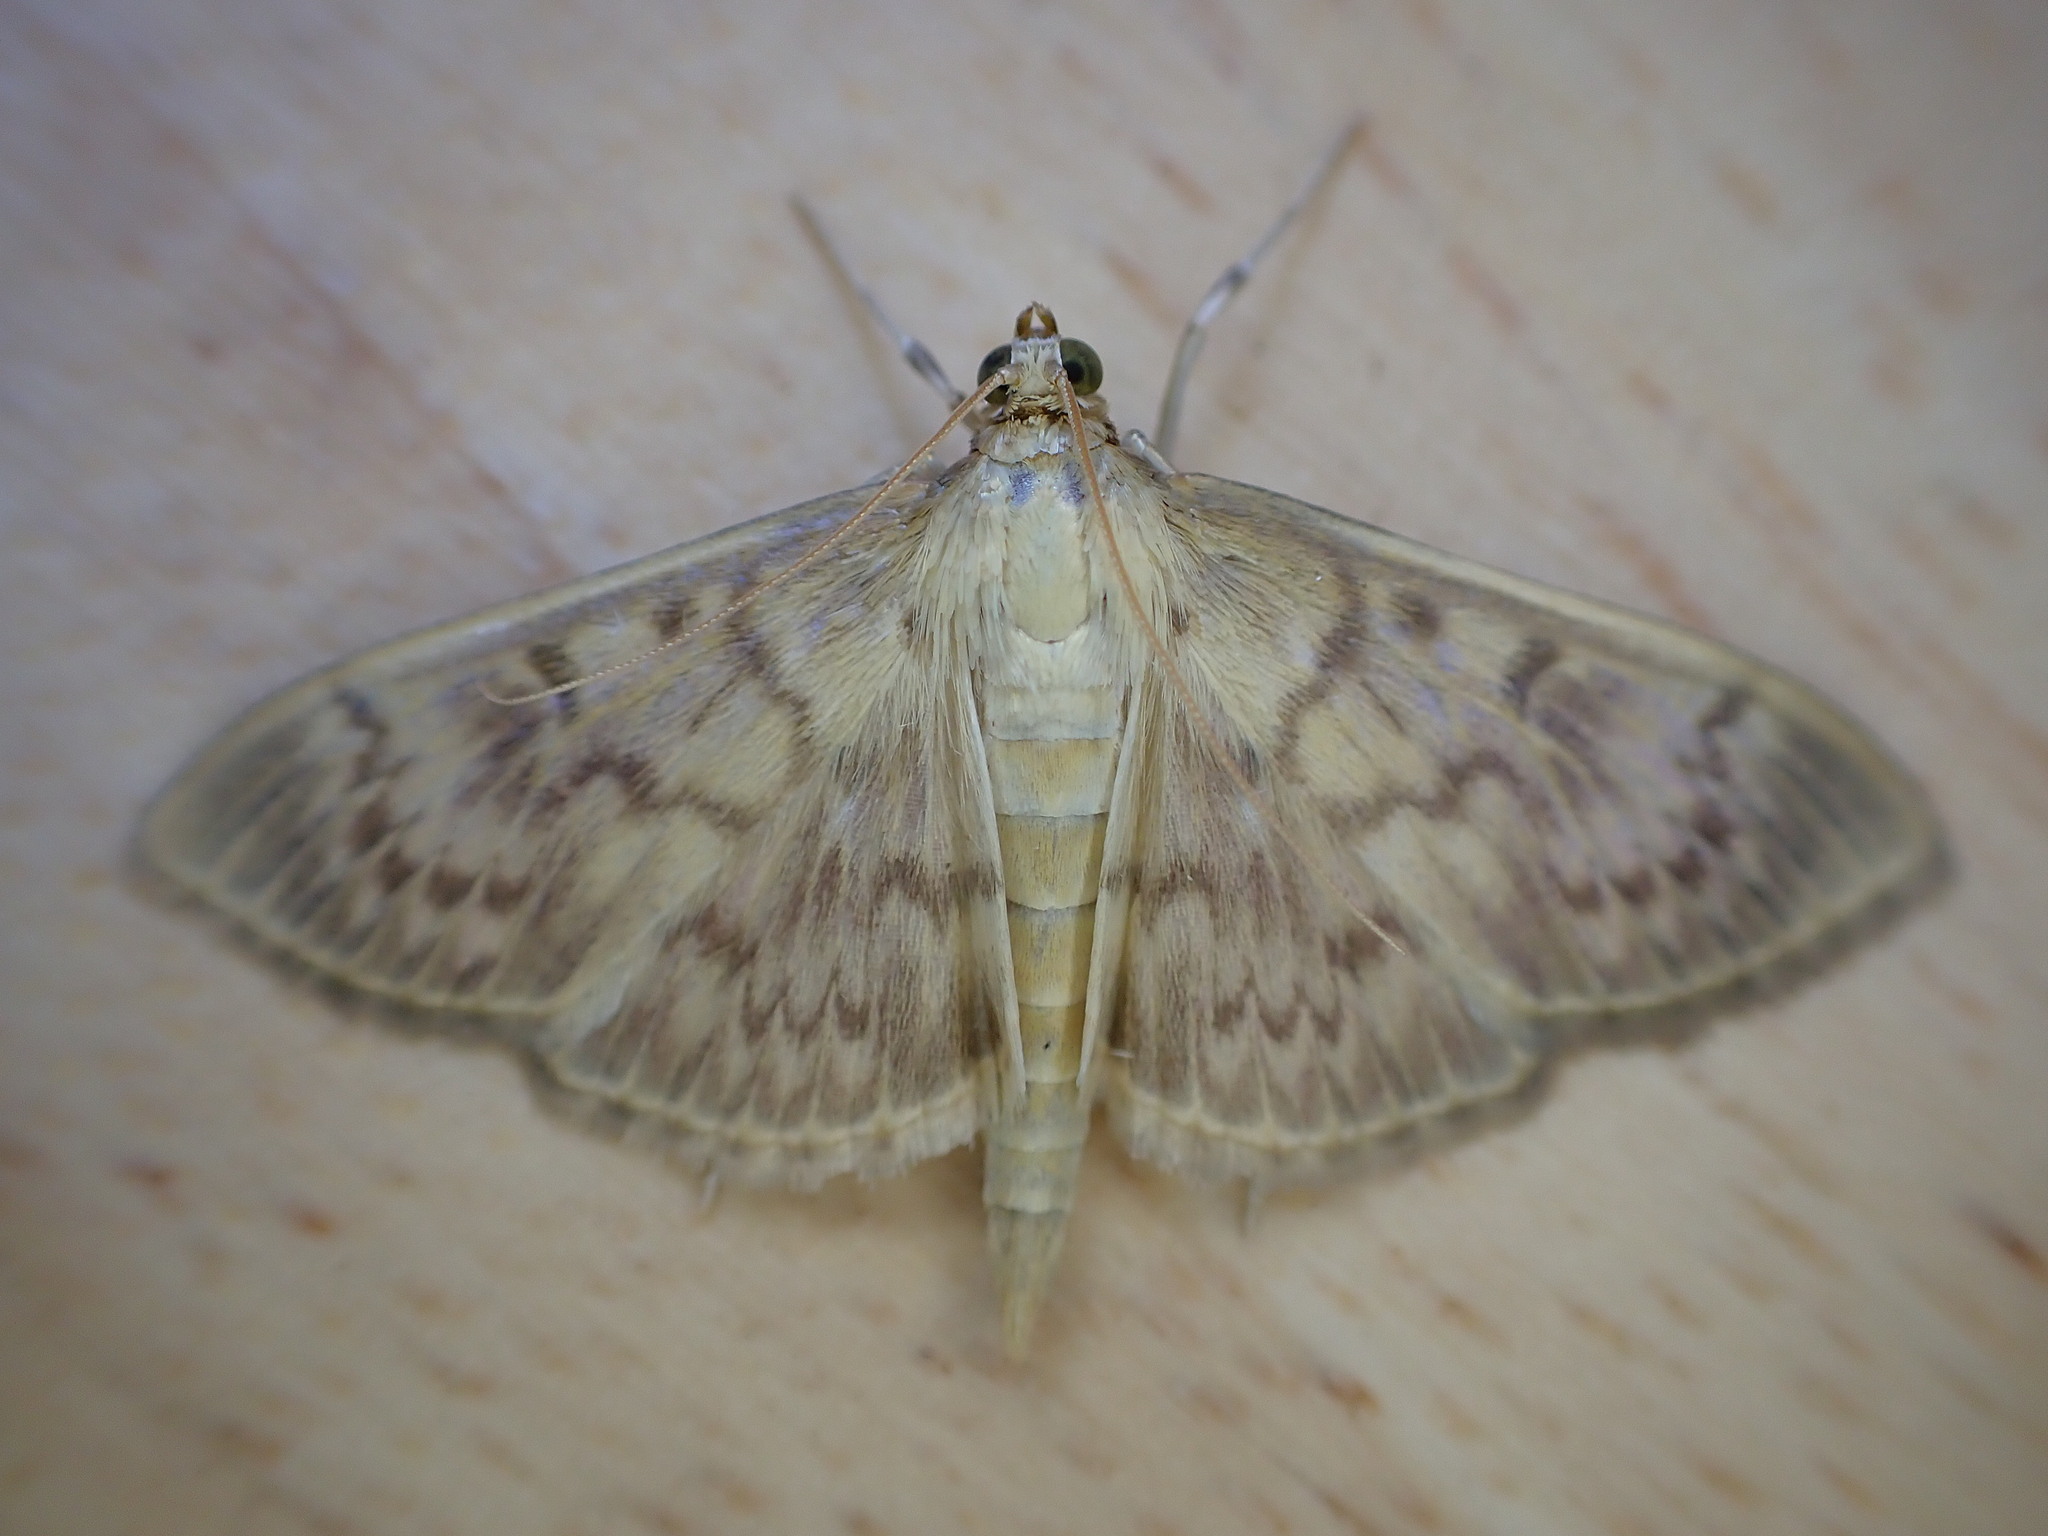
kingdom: Animalia
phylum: Arthropoda
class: Insecta
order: Lepidoptera
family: Crambidae
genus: Patania
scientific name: Patania ruralis
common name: Mother of pearl
